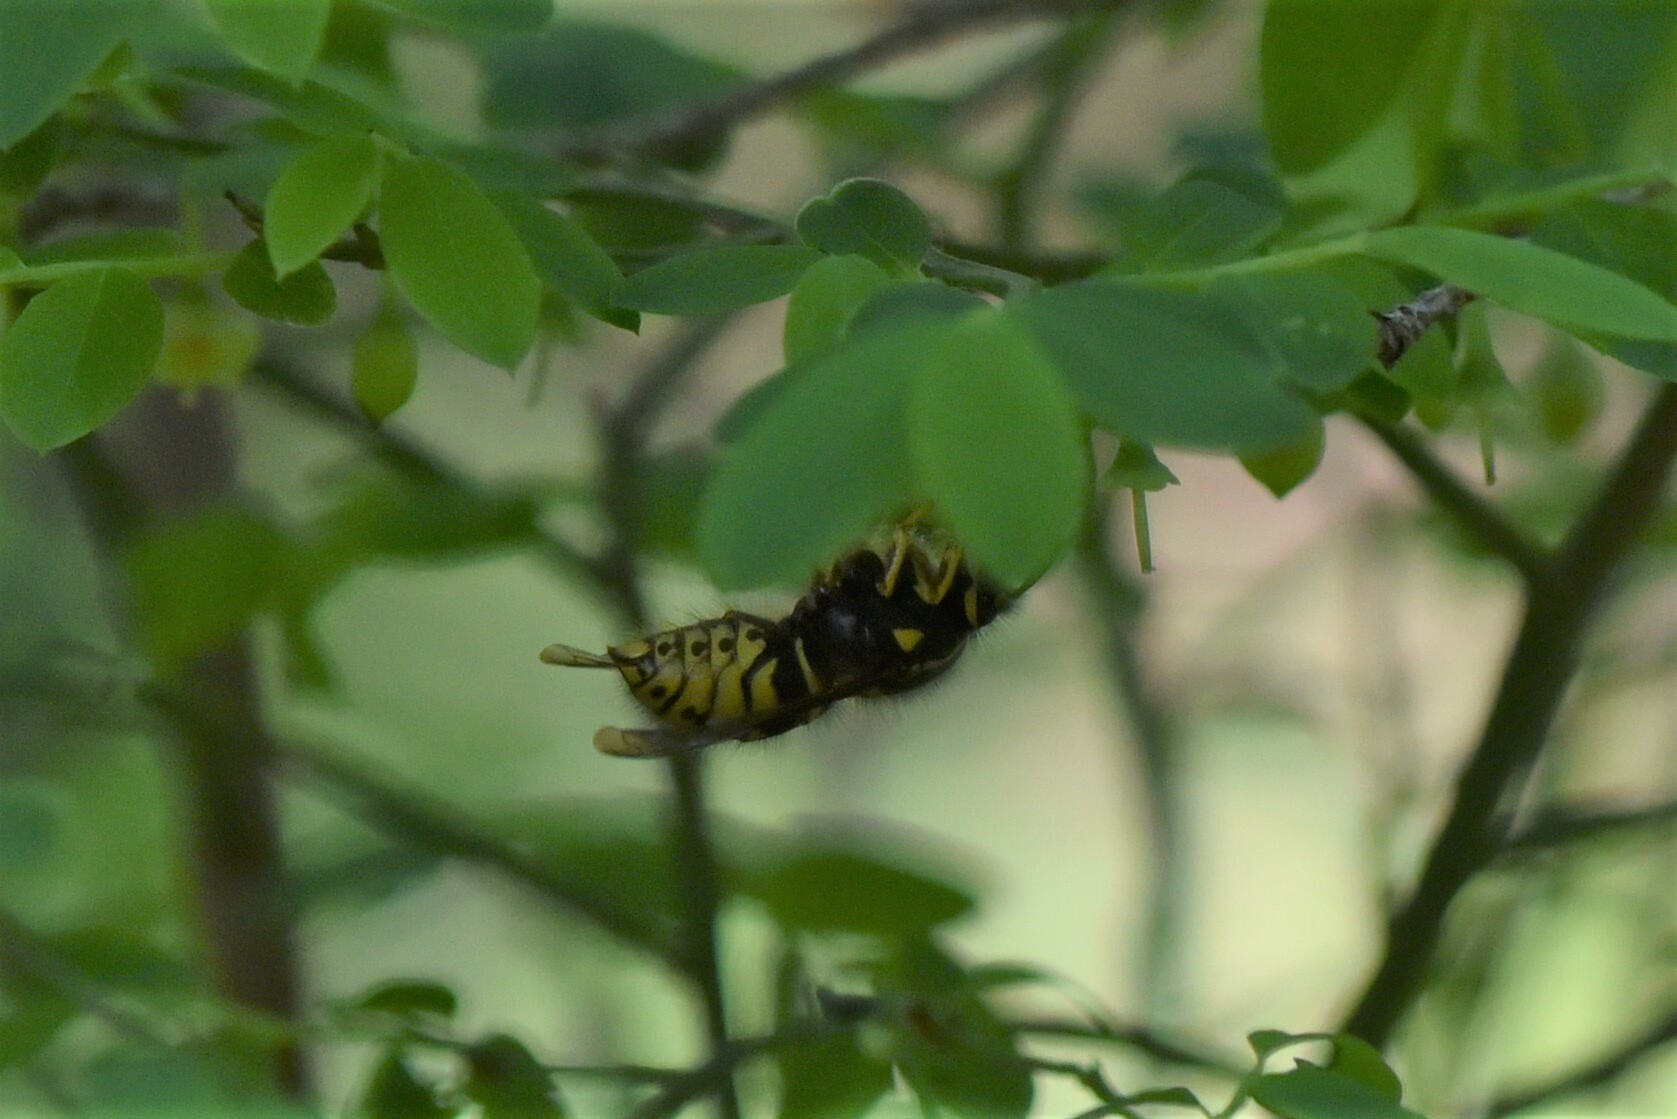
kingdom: Animalia
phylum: Arthropoda
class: Insecta
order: Hymenoptera
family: Vespidae
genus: Dolichovespula
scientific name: Dolichovespula arenaria
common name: Aerial yellowjacket
